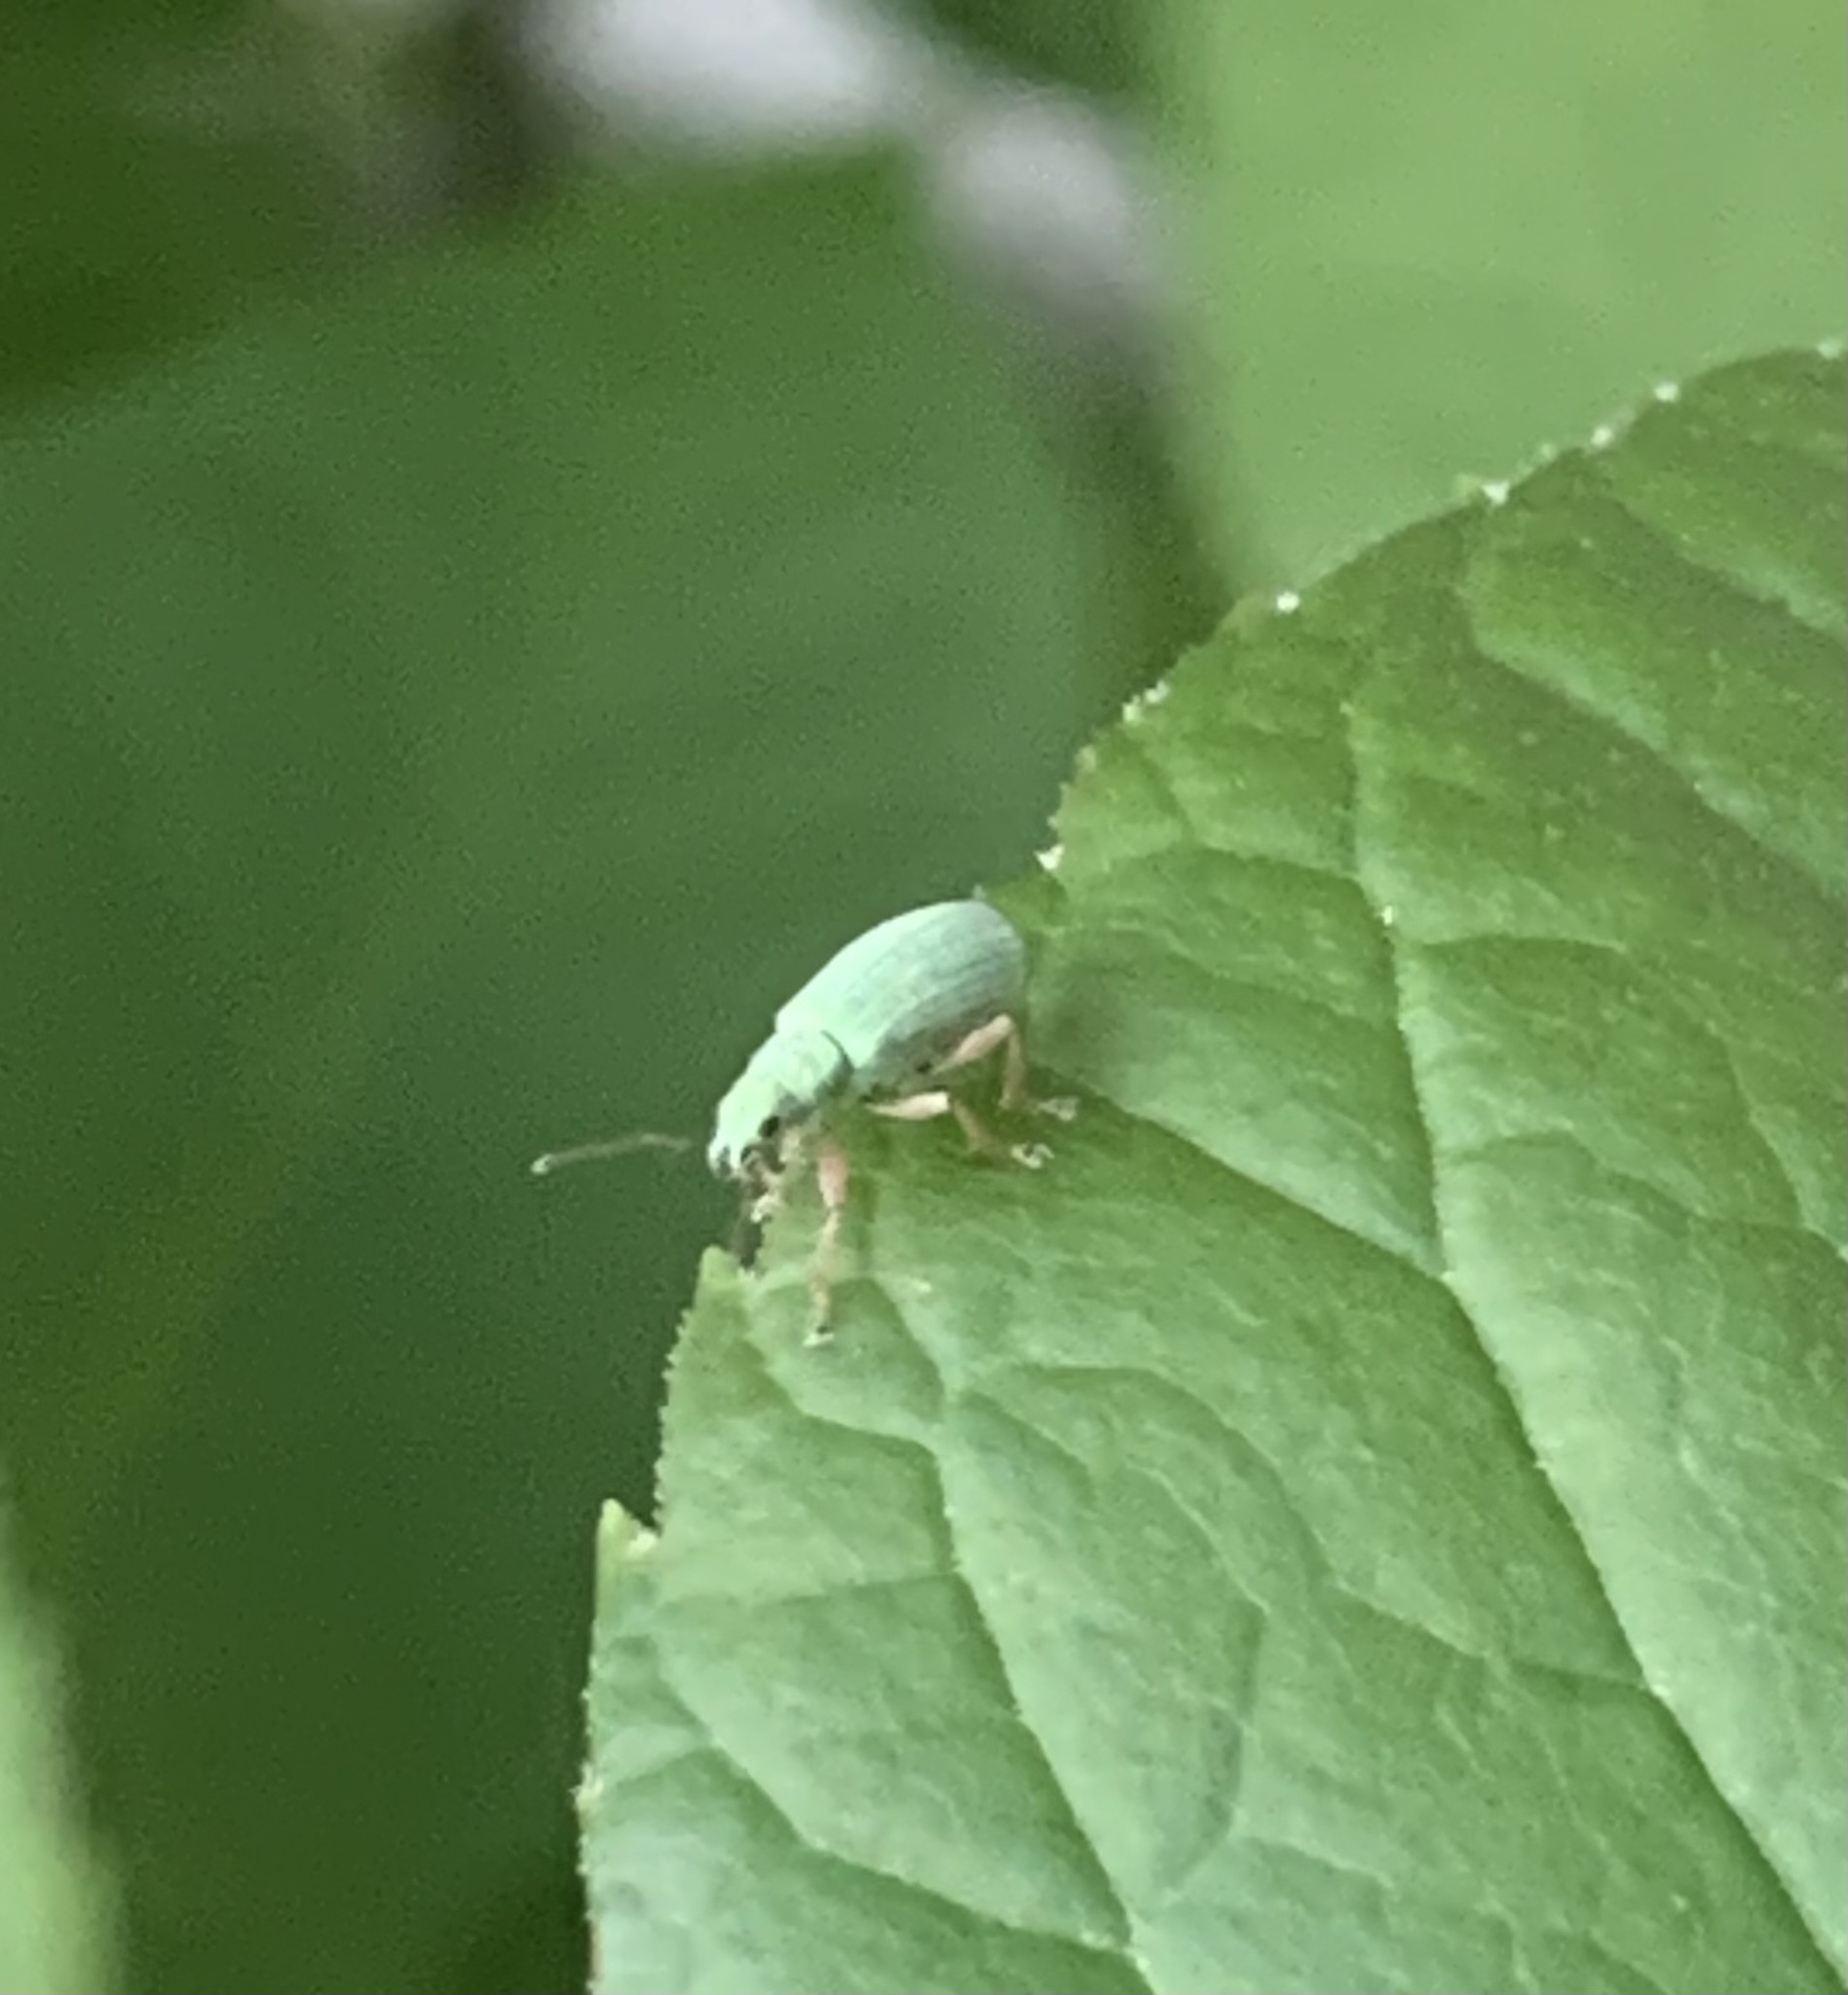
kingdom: Animalia
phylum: Arthropoda
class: Insecta
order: Coleoptera
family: Curculionidae
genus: Polydrusus
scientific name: Polydrusus impressifrons
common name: Weevil
